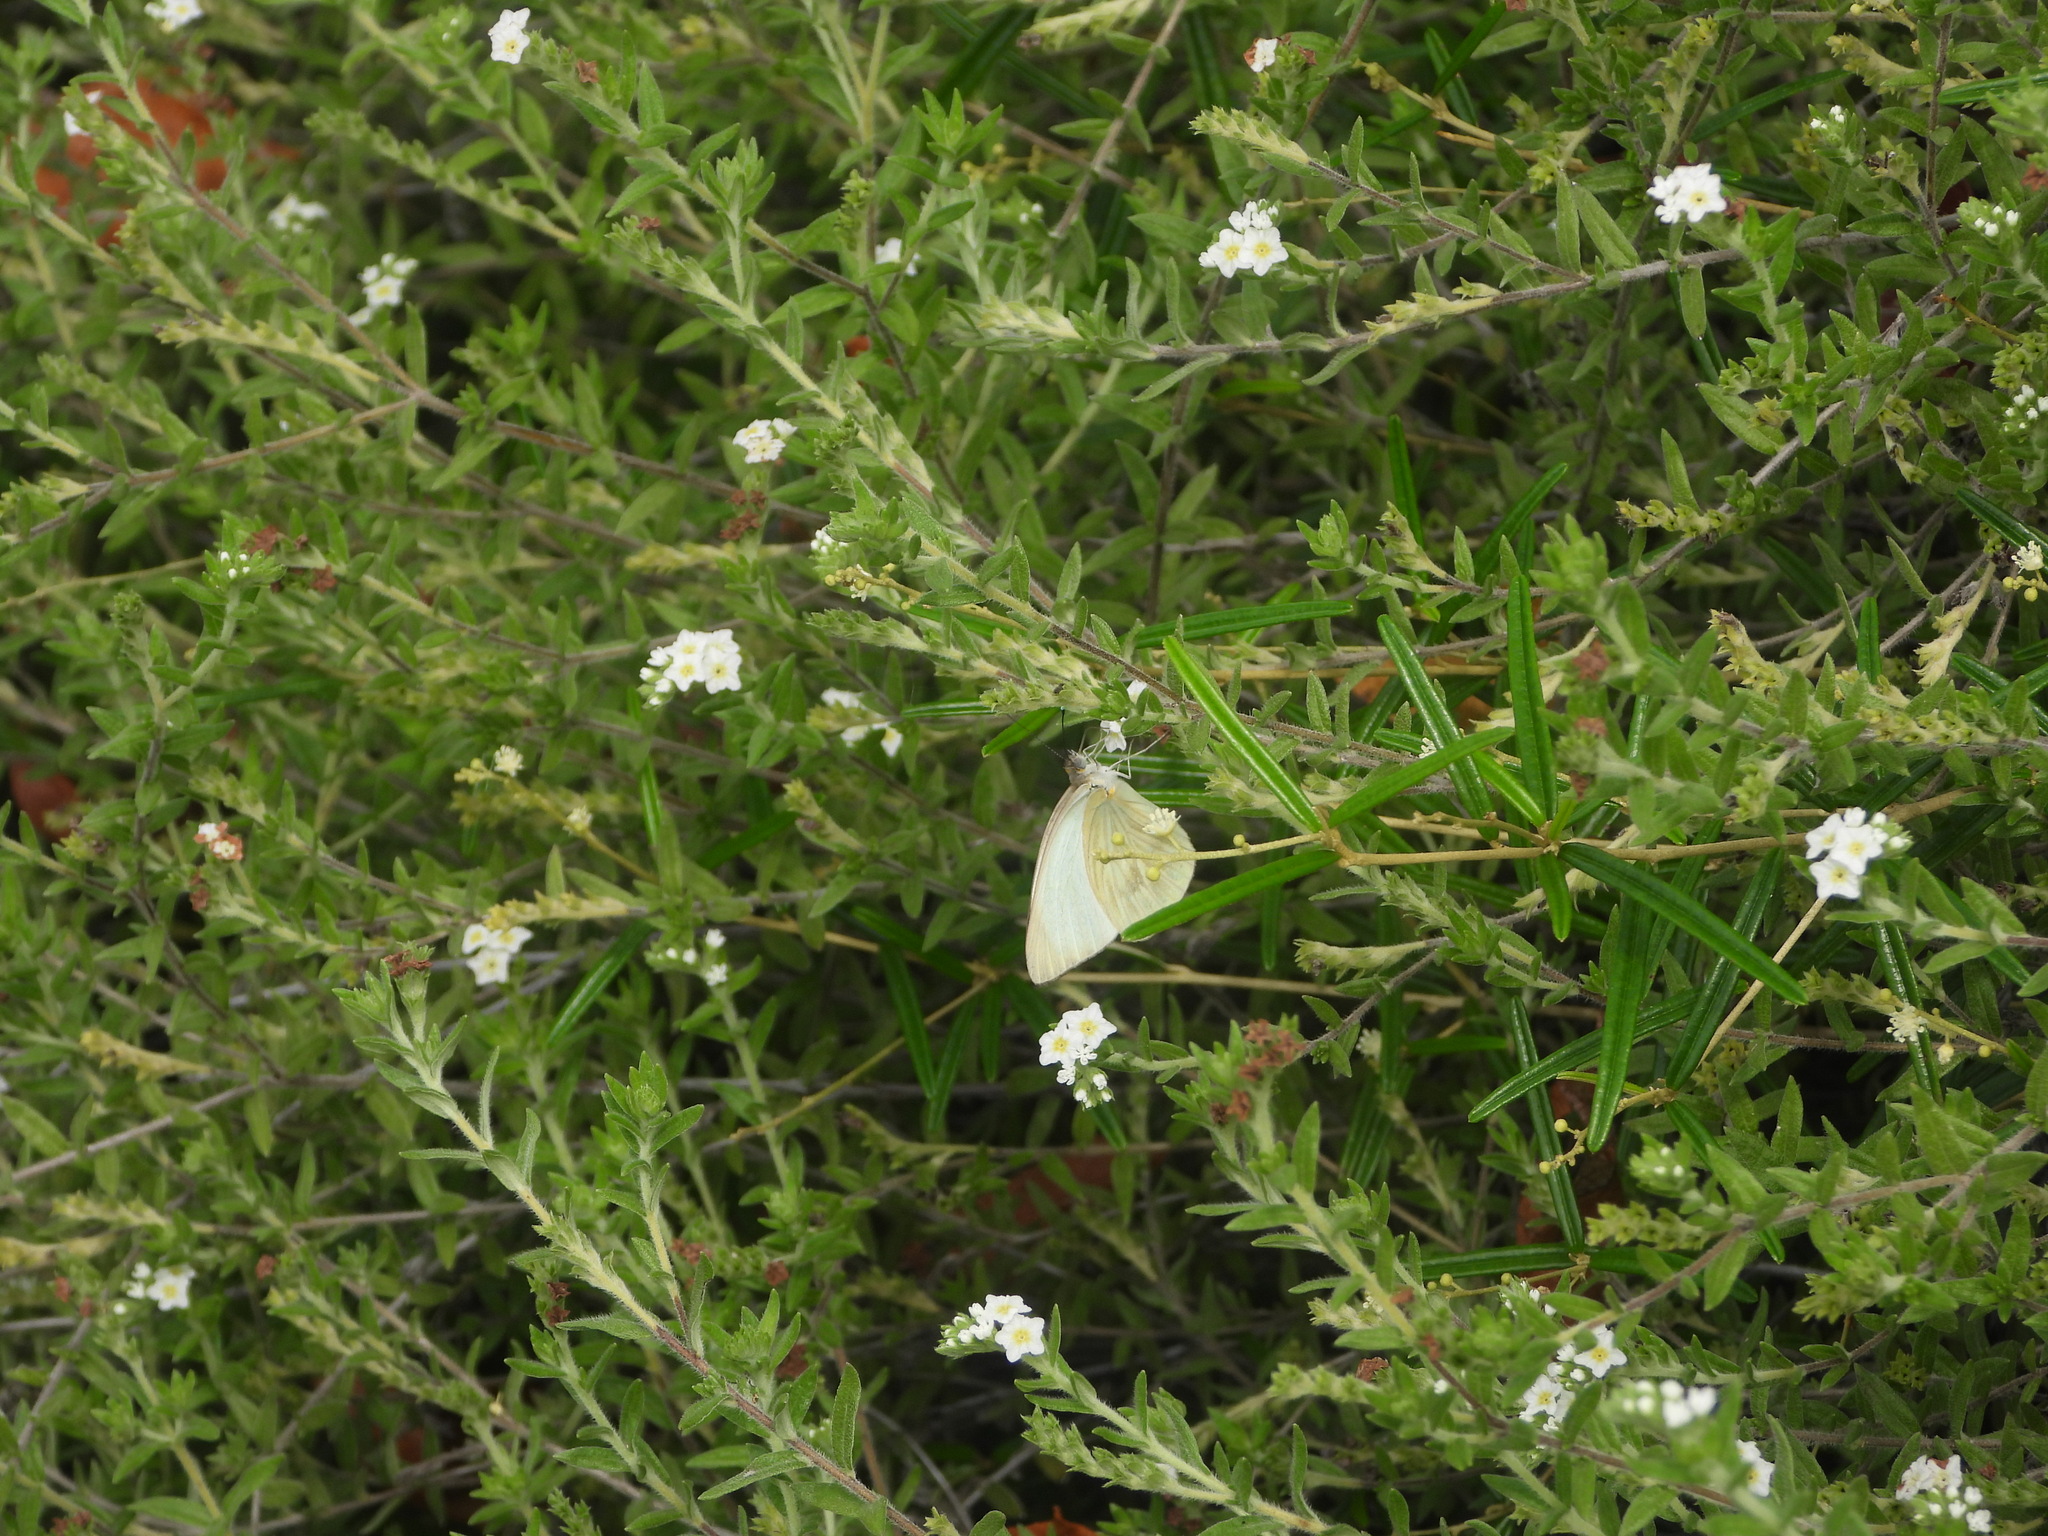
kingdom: Animalia
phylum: Arthropoda
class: Insecta
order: Lepidoptera
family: Pieridae
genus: Ascia
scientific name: Ascia monuste
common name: Great southern white
